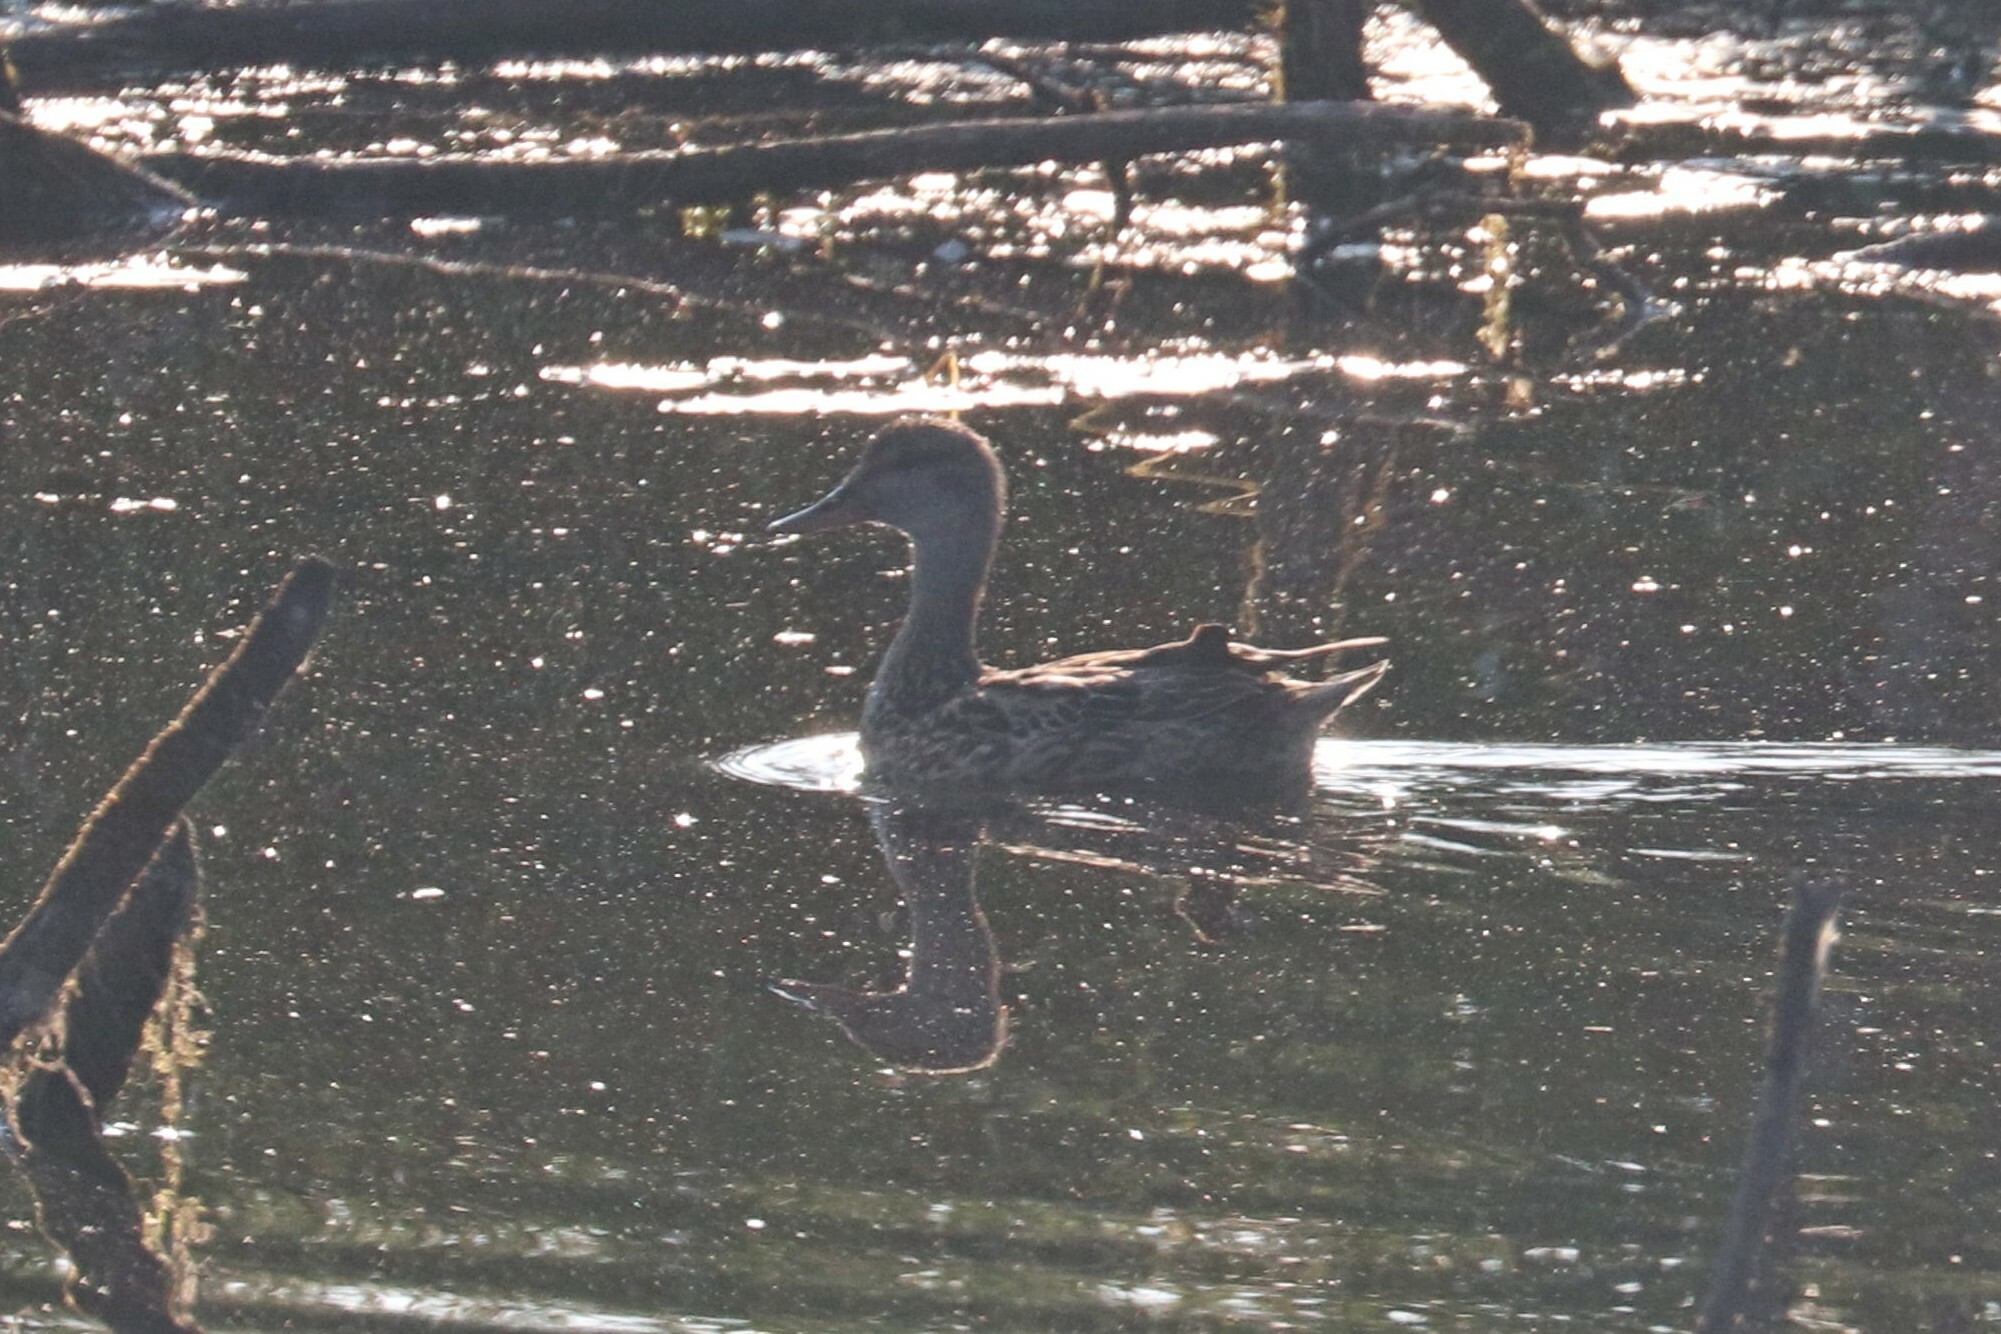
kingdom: Animalia
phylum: Chordata
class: Aves
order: Anseriformes
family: Anatidae
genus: Mareca
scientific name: Mareca strepera
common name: Gadwall
